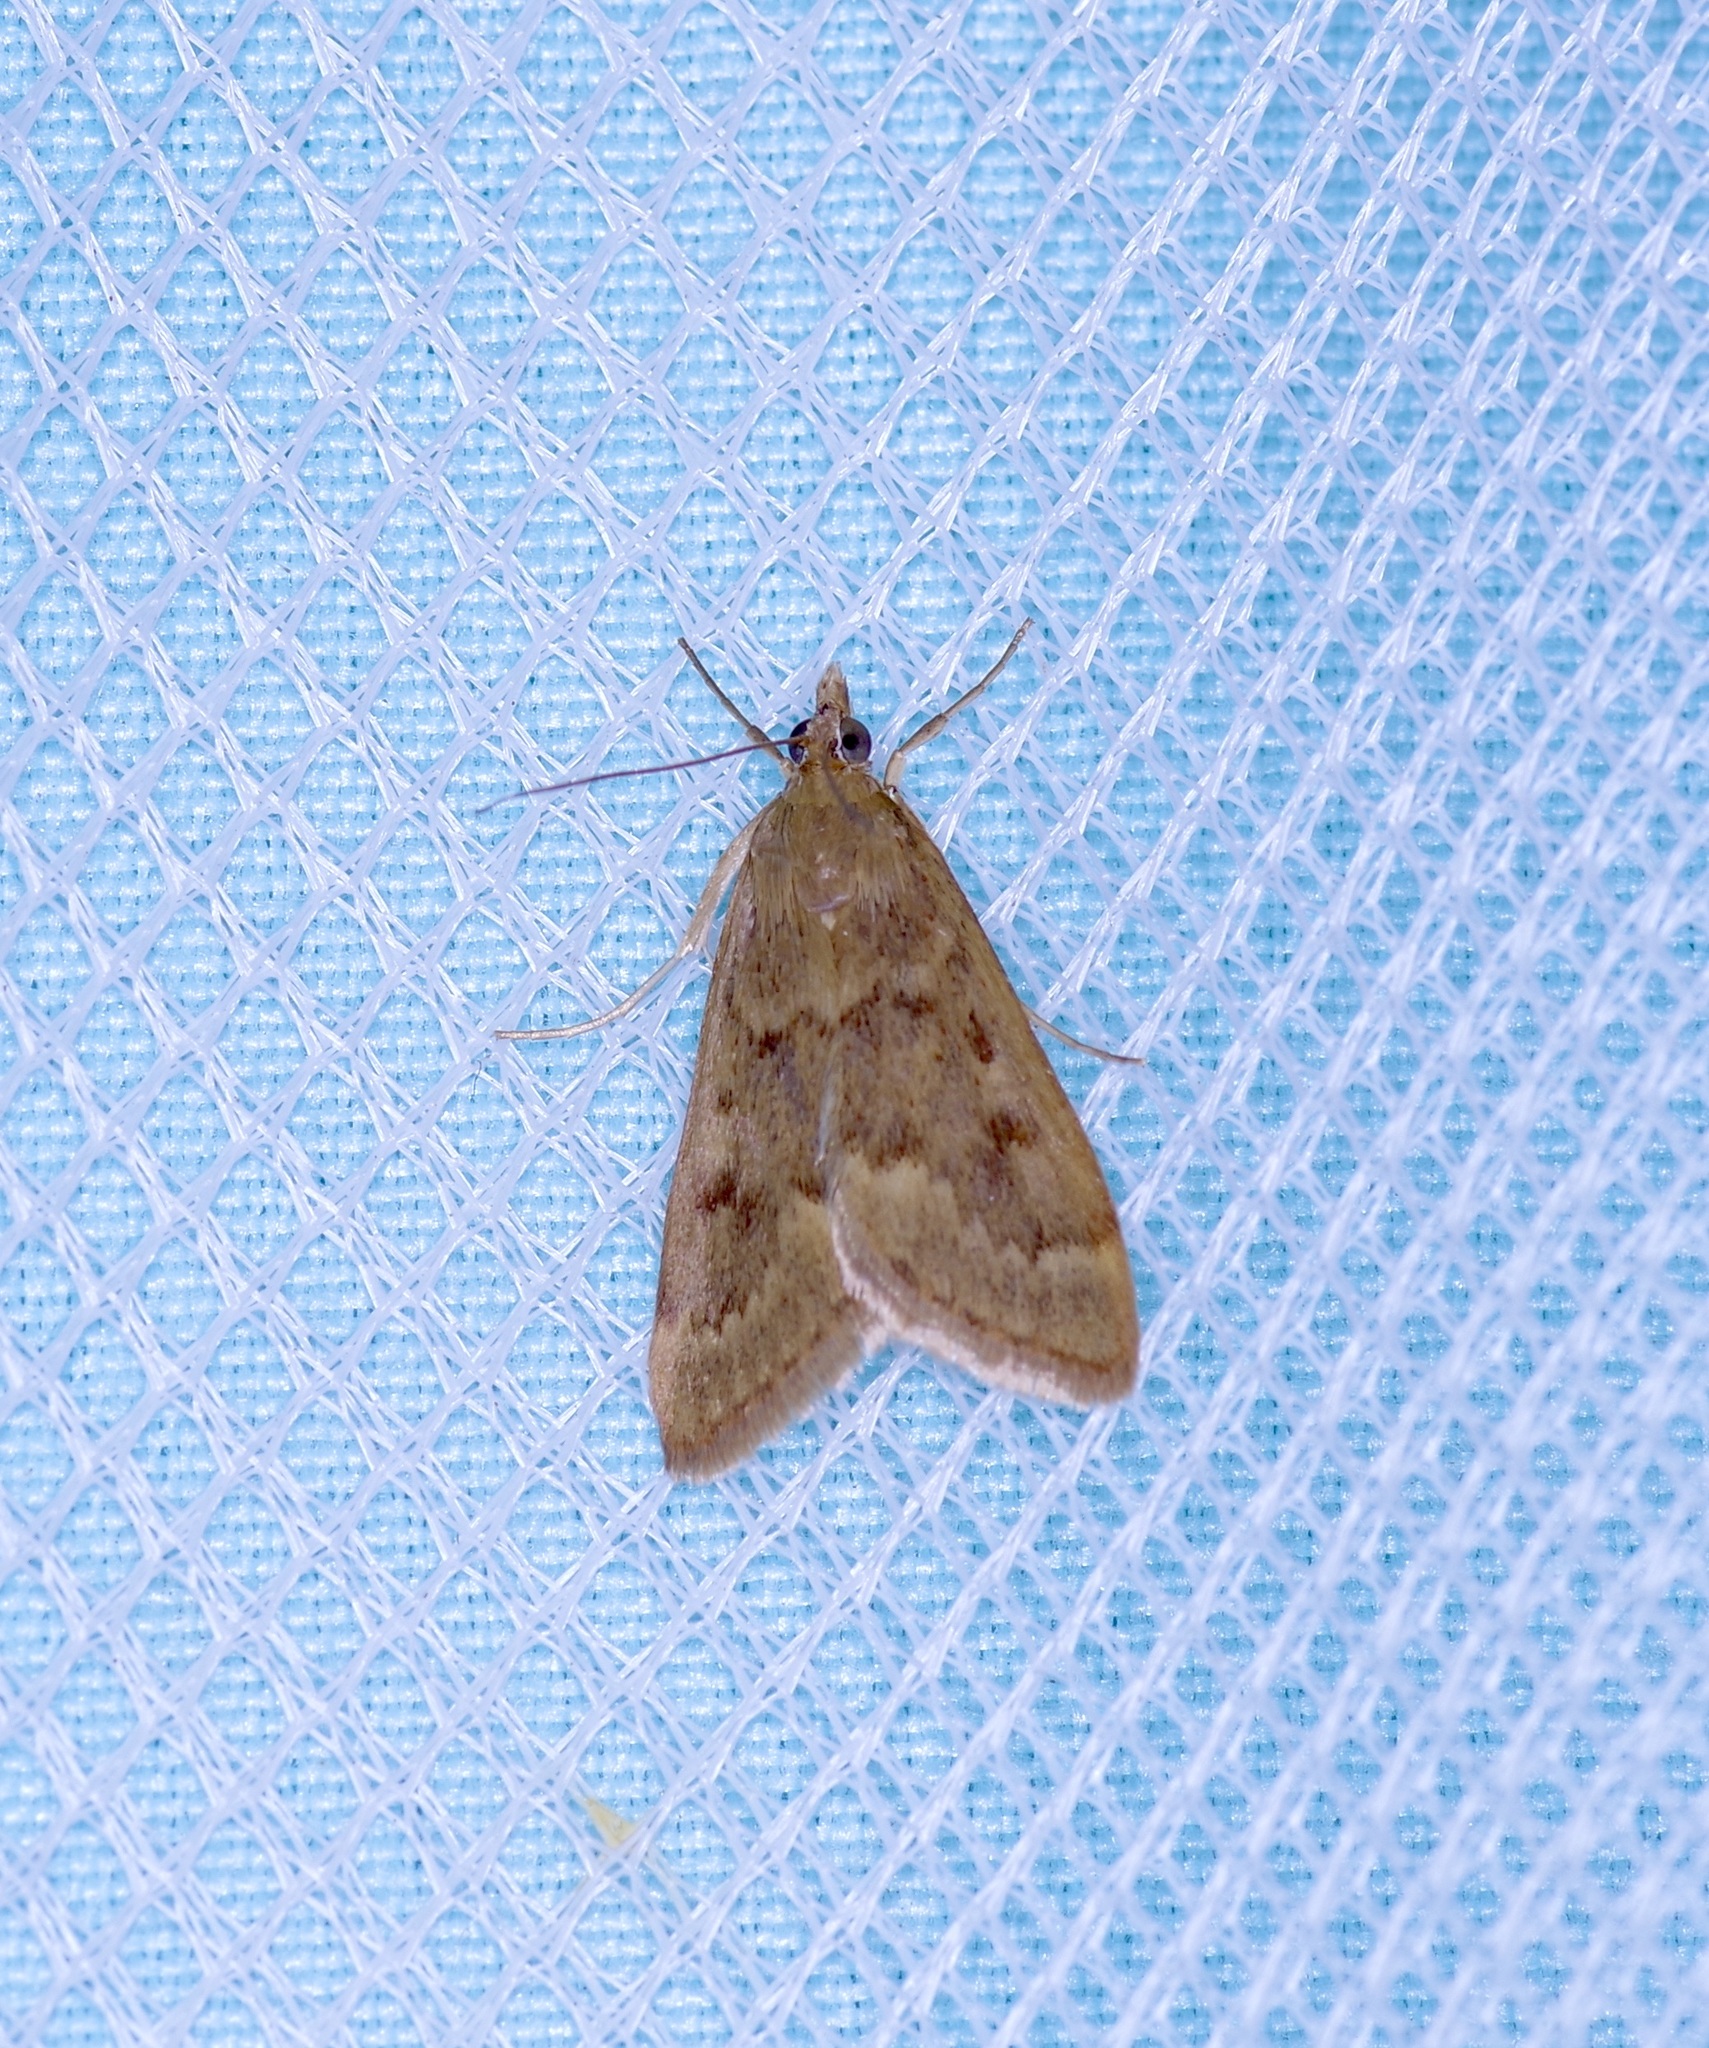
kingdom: Animalia
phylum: Arthropoda
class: Insecta
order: Lepidoptera
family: Crambidae
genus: Achyra
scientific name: Achyra rantalis
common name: Garden webworm
